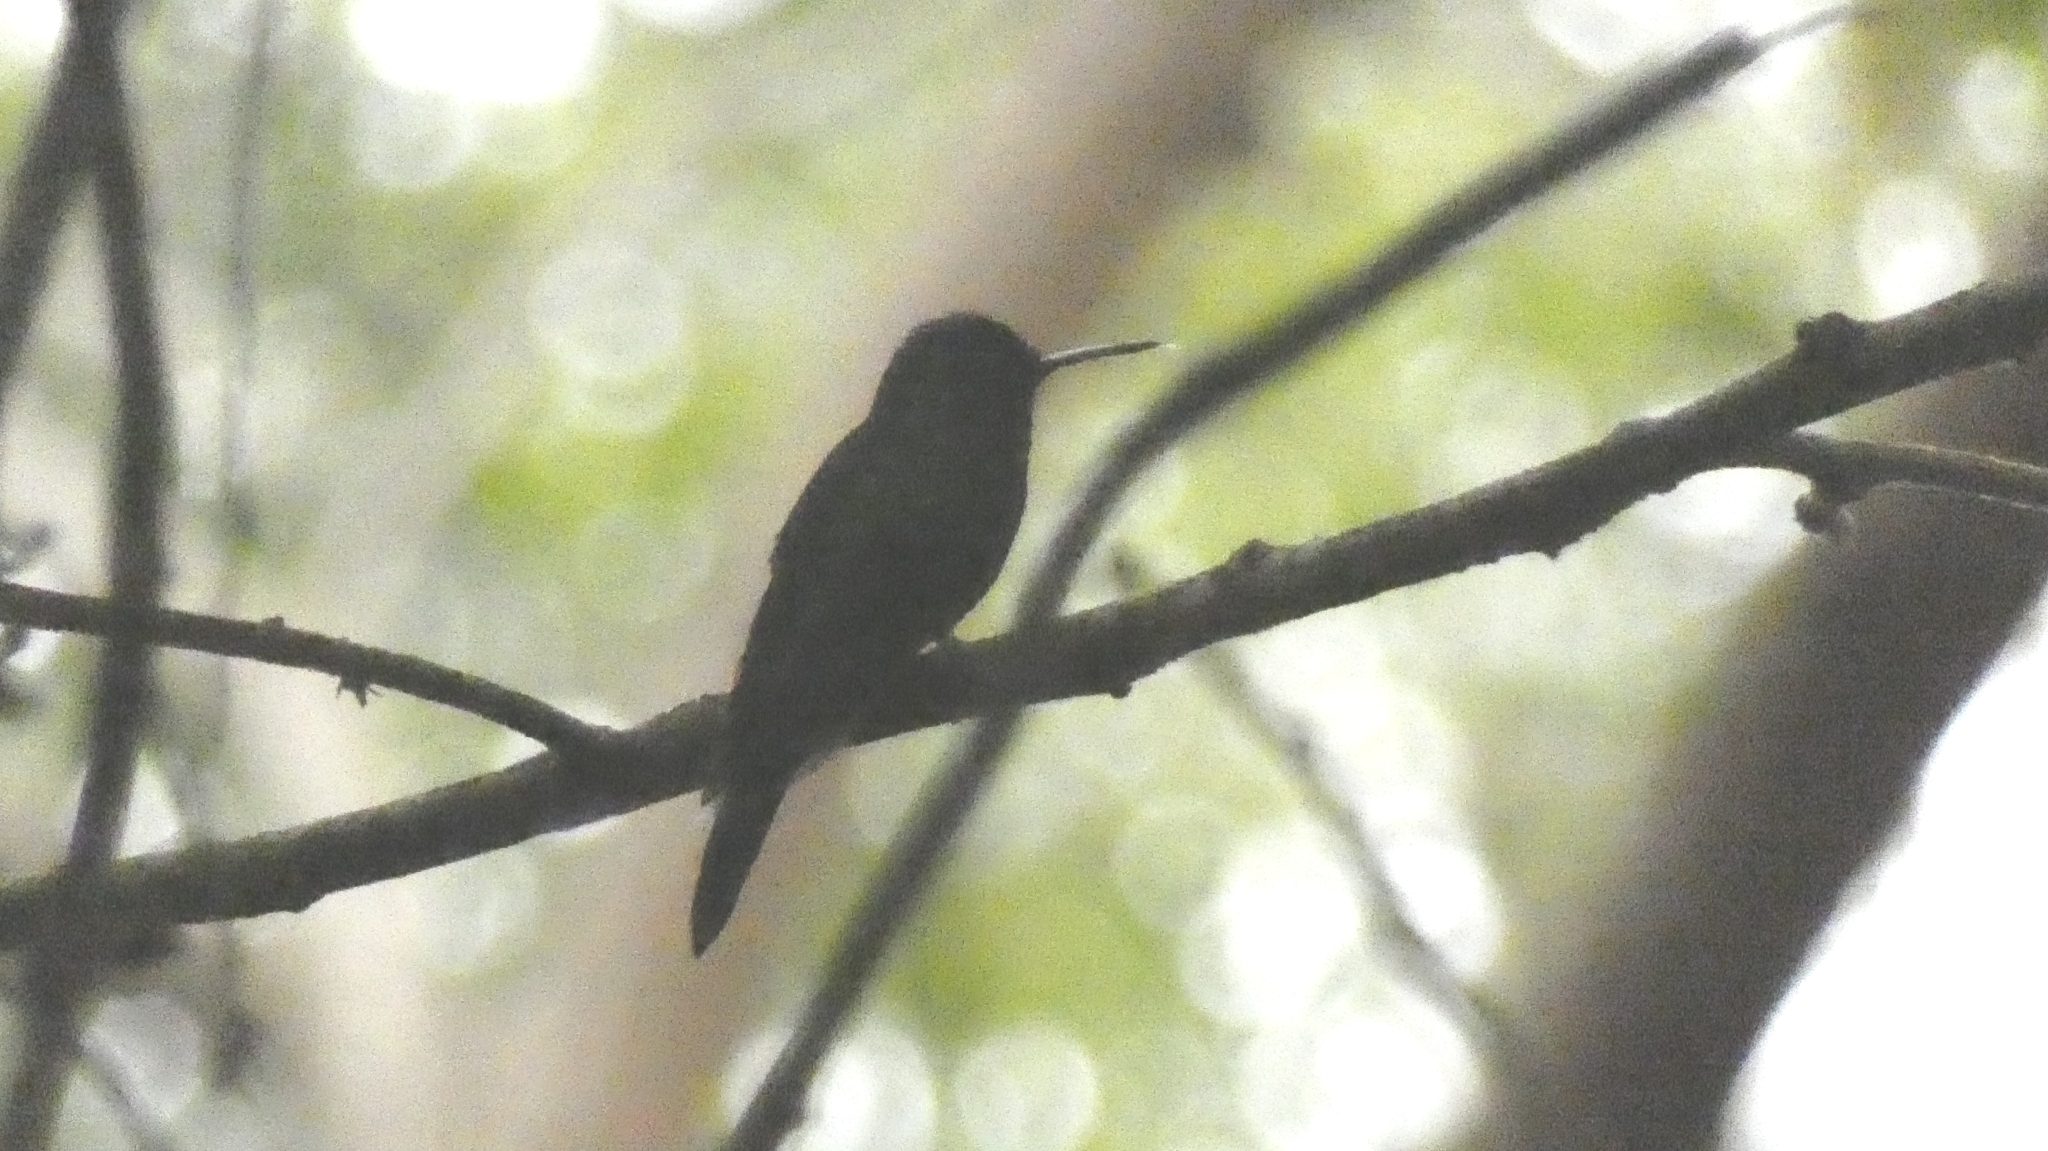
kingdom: Animalia
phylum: Chordata
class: Aves
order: Apodiformes
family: Trochilidae
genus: Thalurania
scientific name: Thalurania glaucopis
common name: Violet-capped woodnymph
